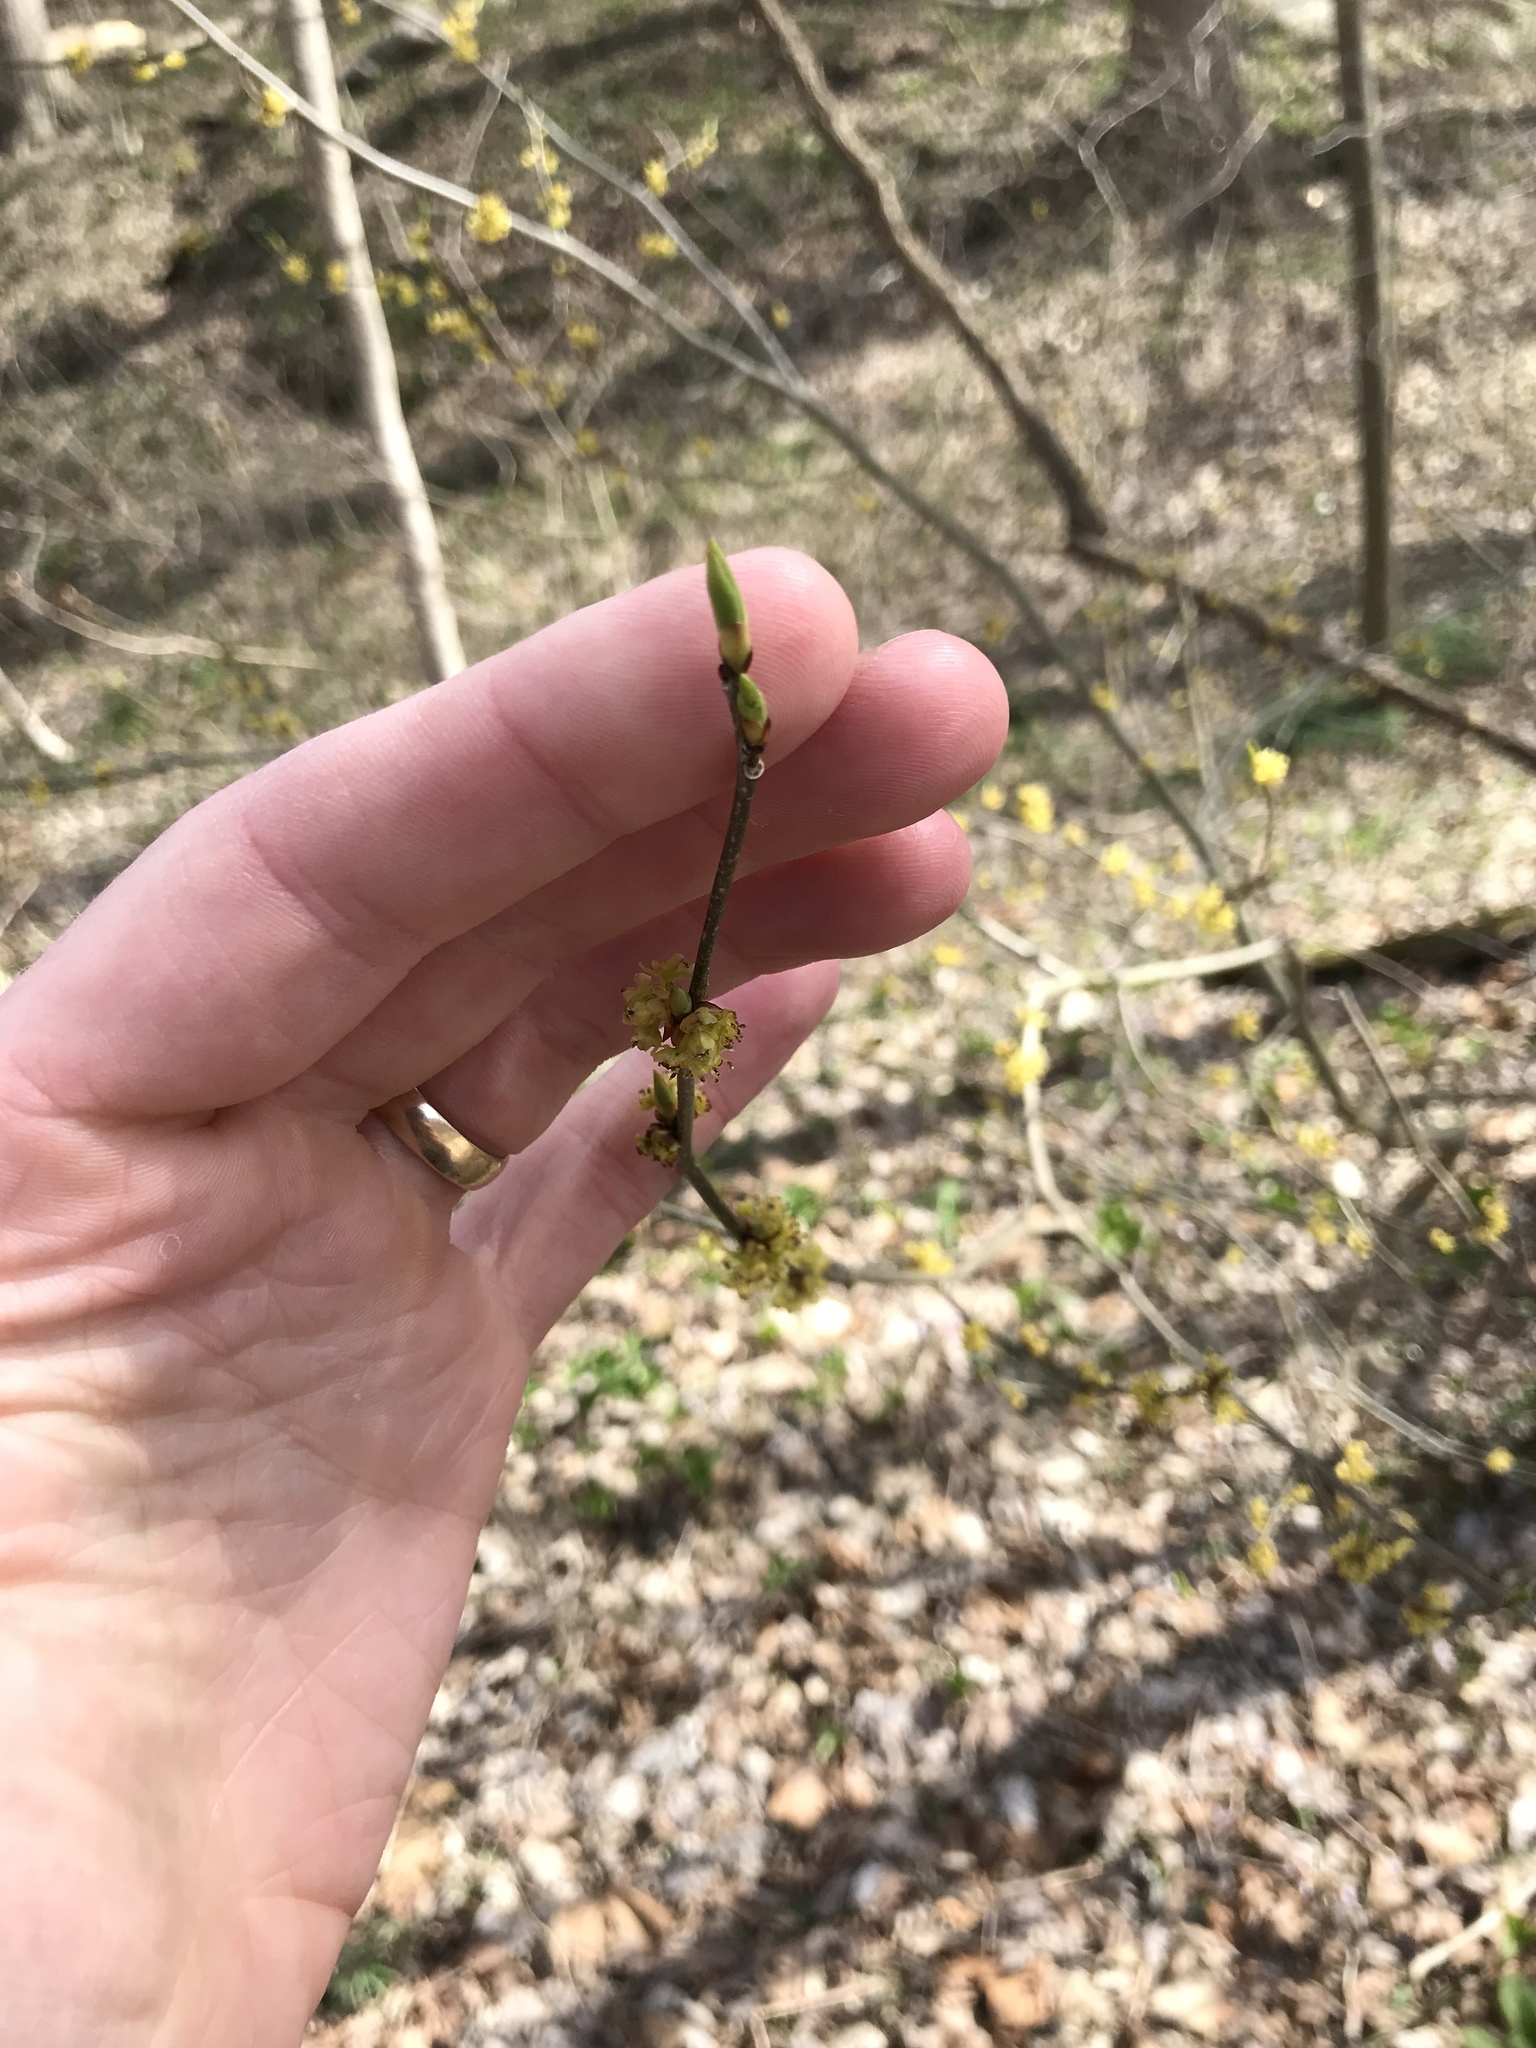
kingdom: Plantae
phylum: Tracheophyta
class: Magnoliopsida
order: Laurales
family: Lauraceae
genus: Lindera
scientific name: Lindera benzoin
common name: Spicebush
